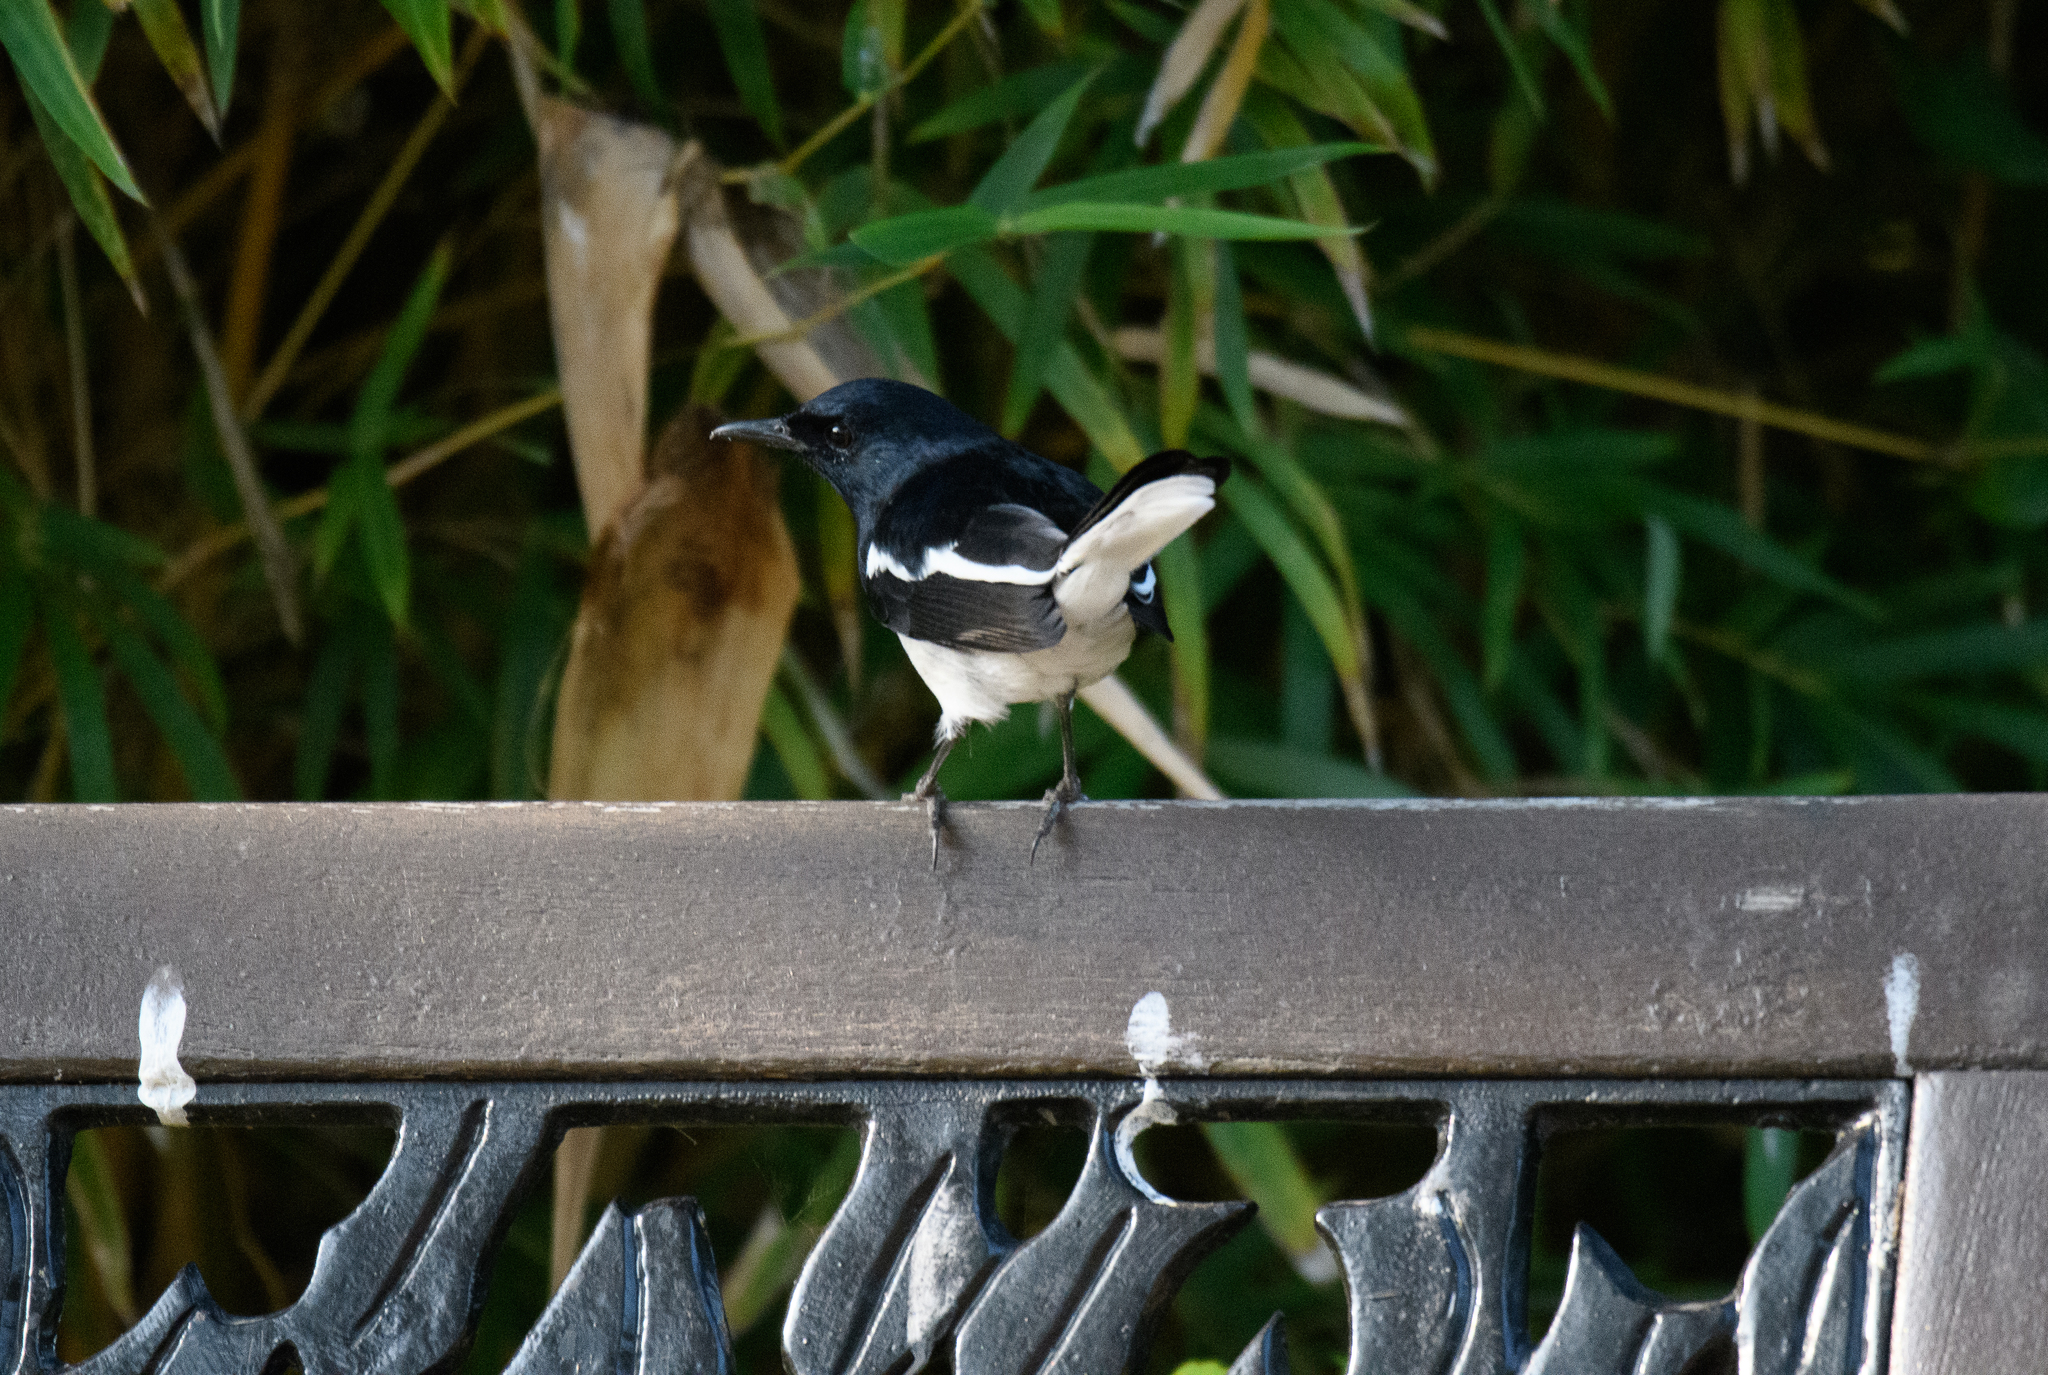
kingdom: Animalia
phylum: Chordata
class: Aves
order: Passeriformes
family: Muscicapidae
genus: Copsychus
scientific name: Copsychus saularis
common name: Oriental magpie-robin
